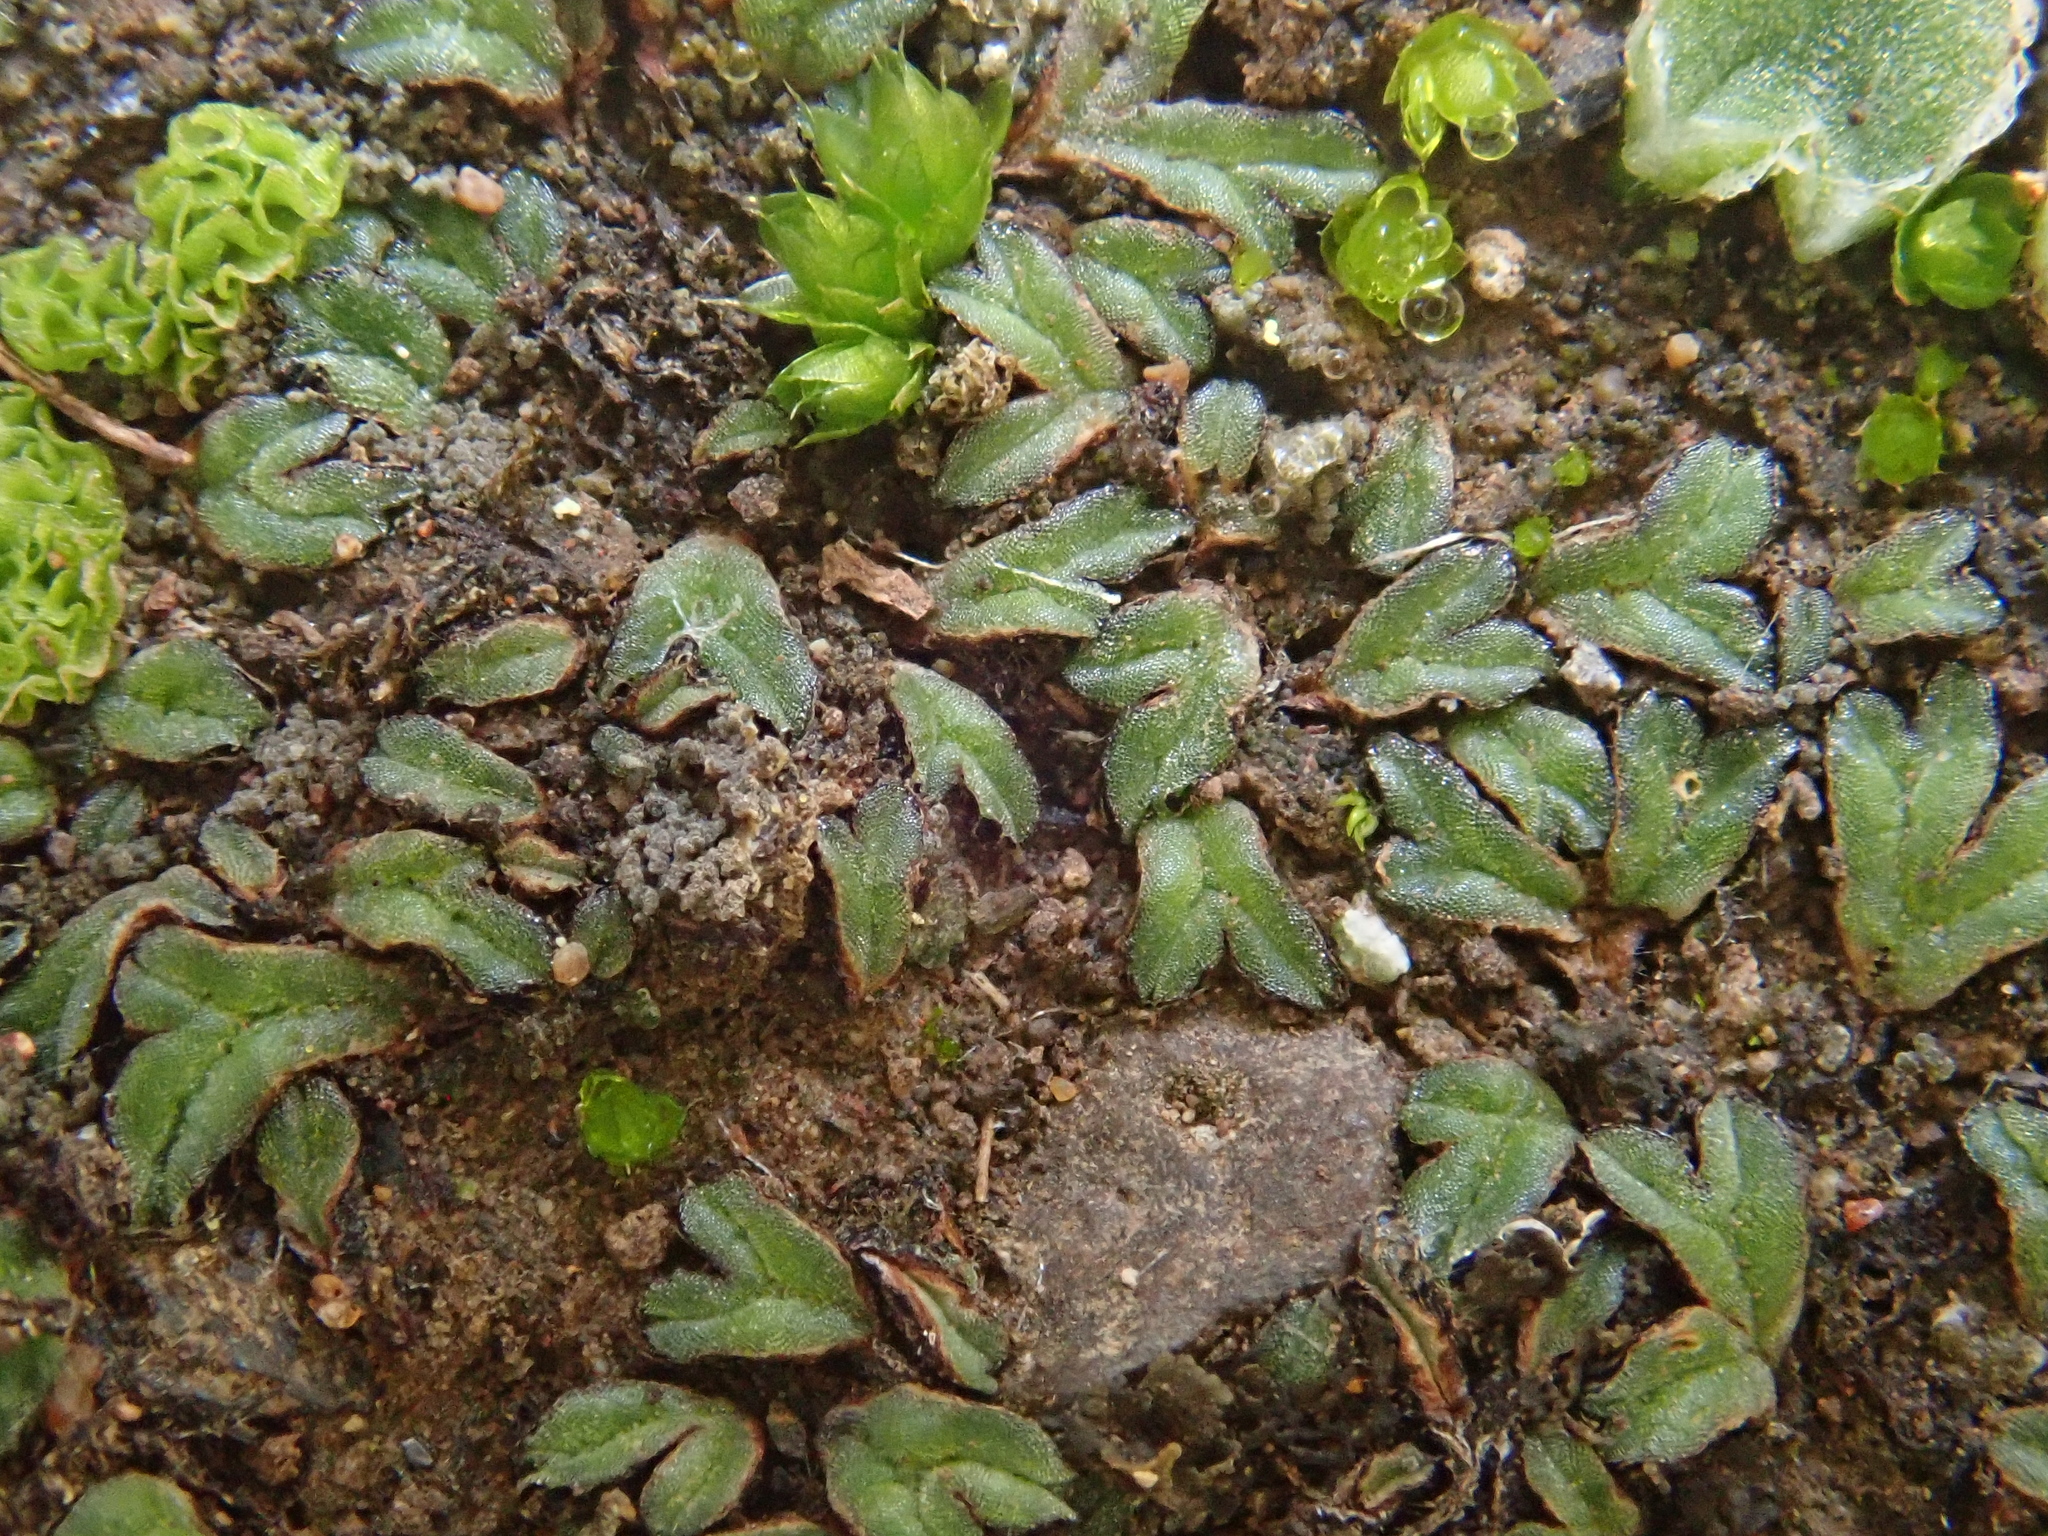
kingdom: Plantae
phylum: Marchantiophyta
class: Marchantiopsida
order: Marchantiales
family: Ricciaceae
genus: Riccia
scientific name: Riccia nigrella
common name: Black crystalwort
